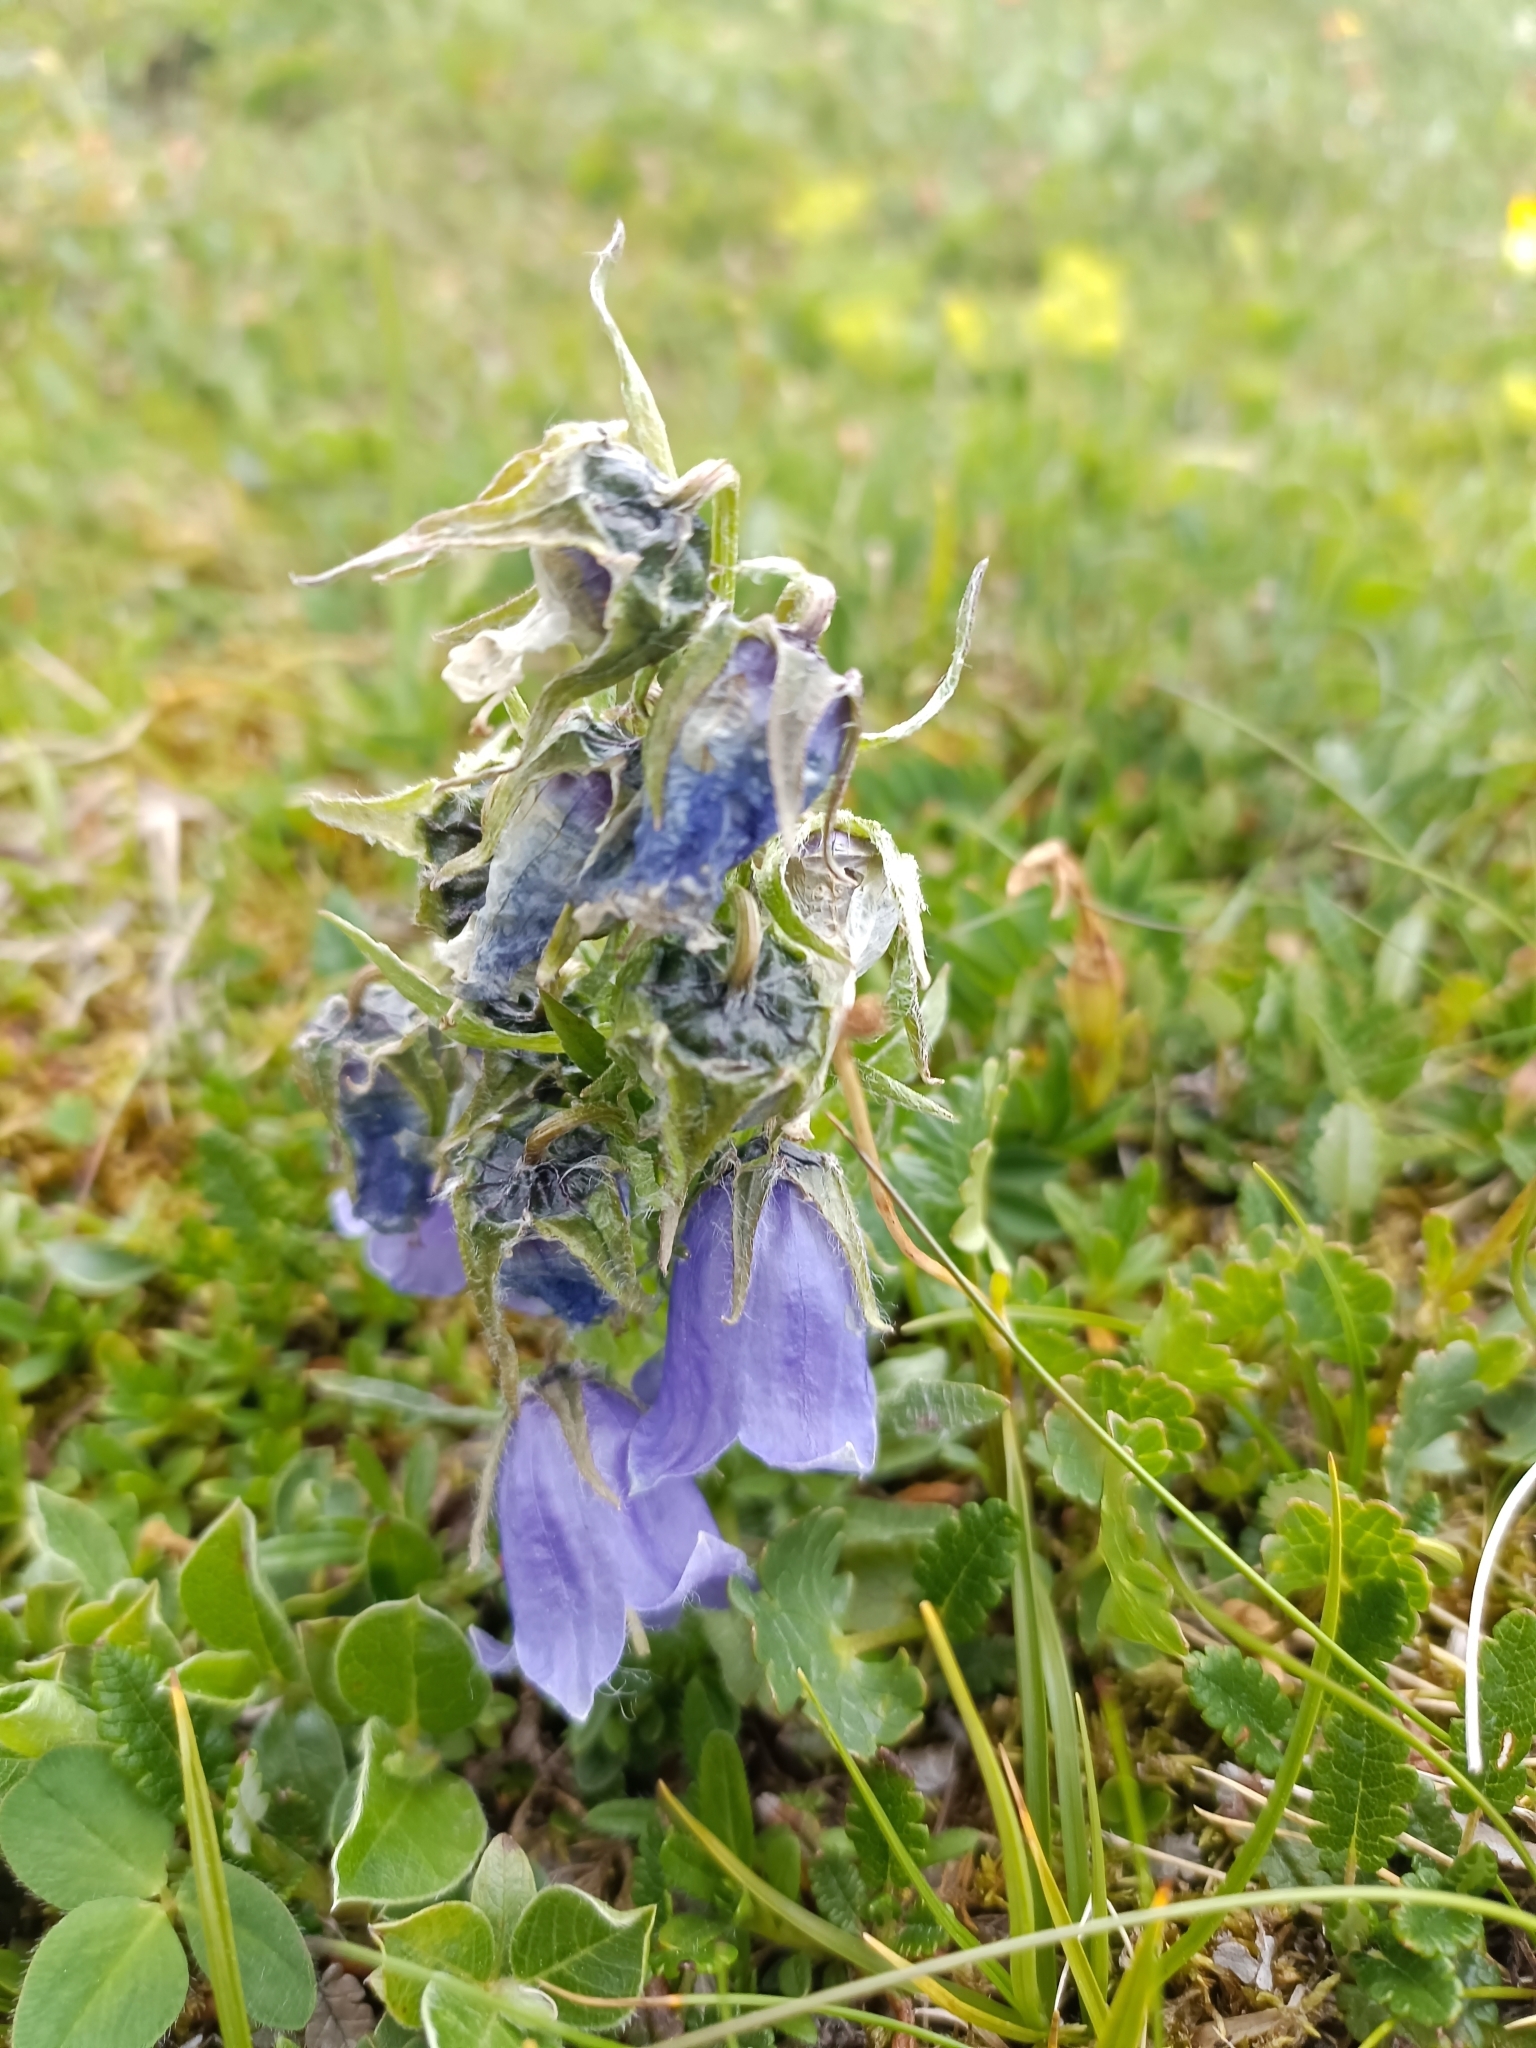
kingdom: Plantae
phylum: Tracheophyta
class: Magnoliopsida
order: Asterales
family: Campanulaceae
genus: Campanula
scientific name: Campanula alpina
